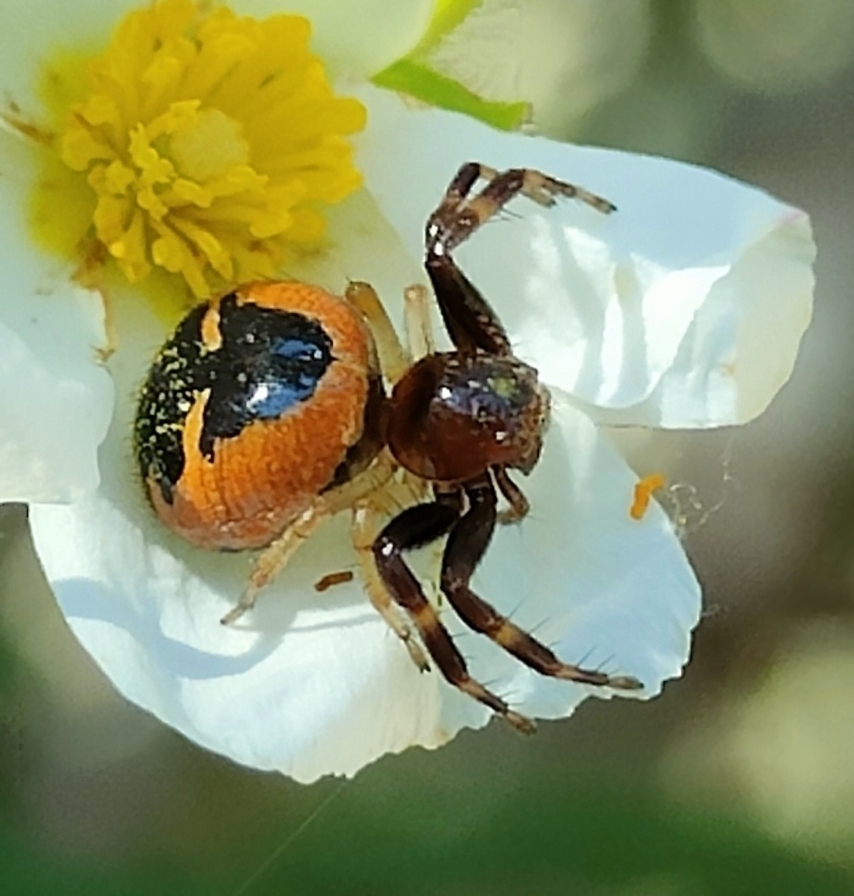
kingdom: Animalia
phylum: Arthropoda
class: Arachnida
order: Araneae
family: Thomisidae
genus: Synema
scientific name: Synema globosum
